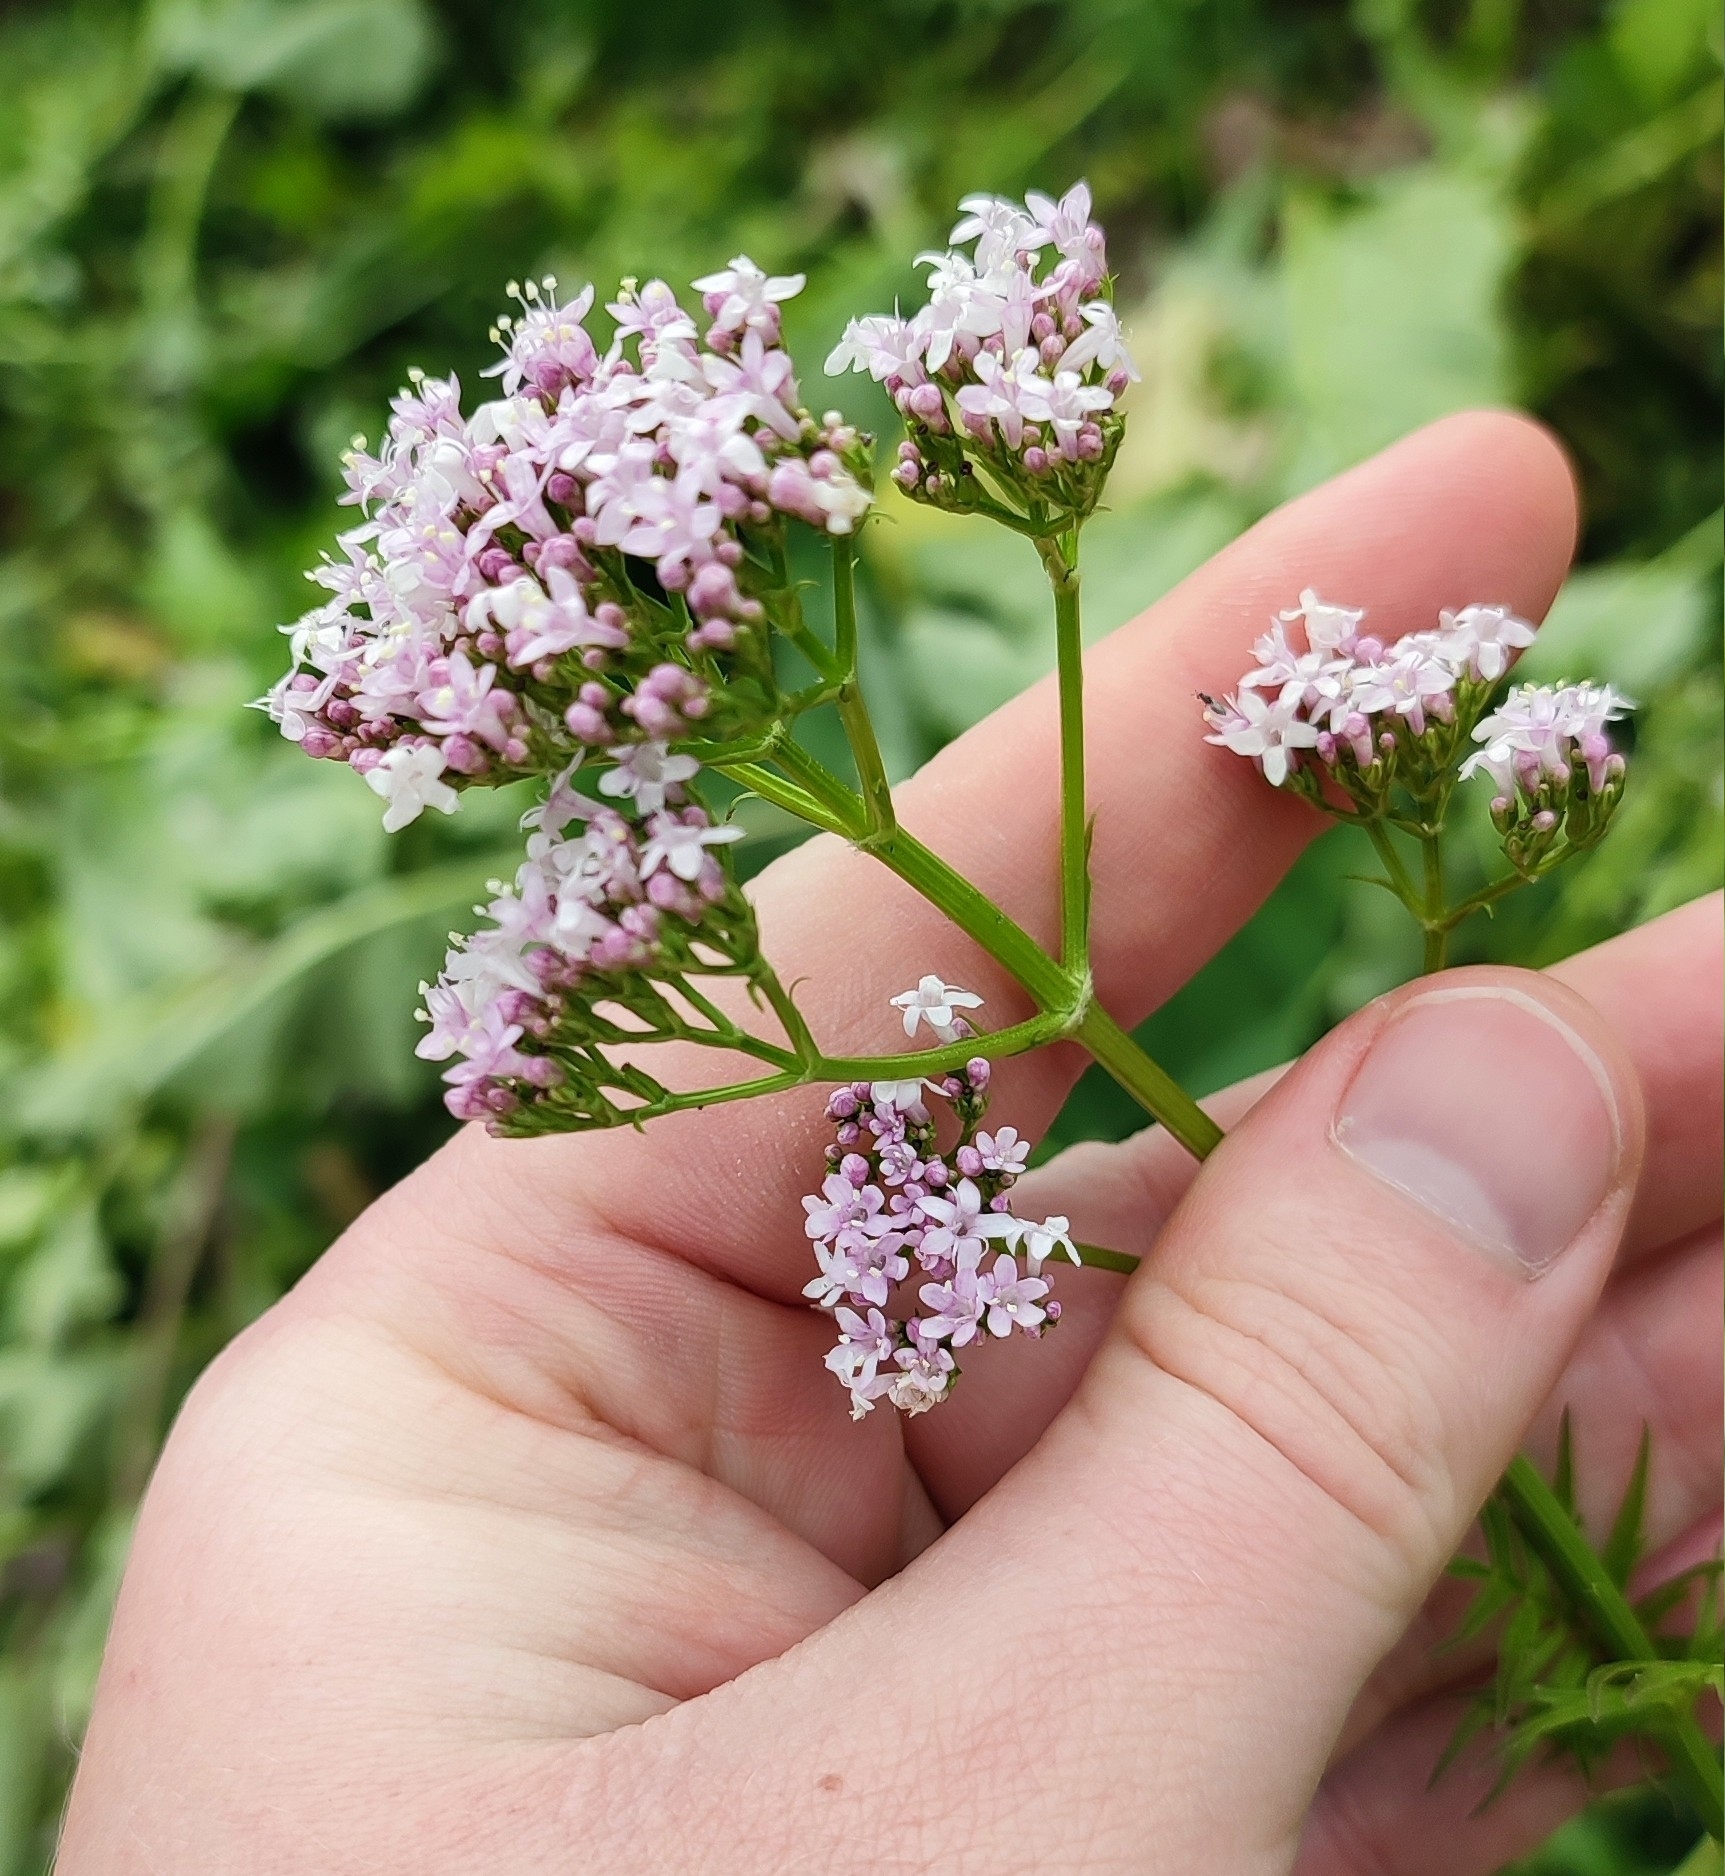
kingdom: Plantae
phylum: Tracheophyta
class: Magnoliopsida
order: Dipsacales
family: Caprifoliaceae
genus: Valeriana
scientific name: Valeriana wolgensis
